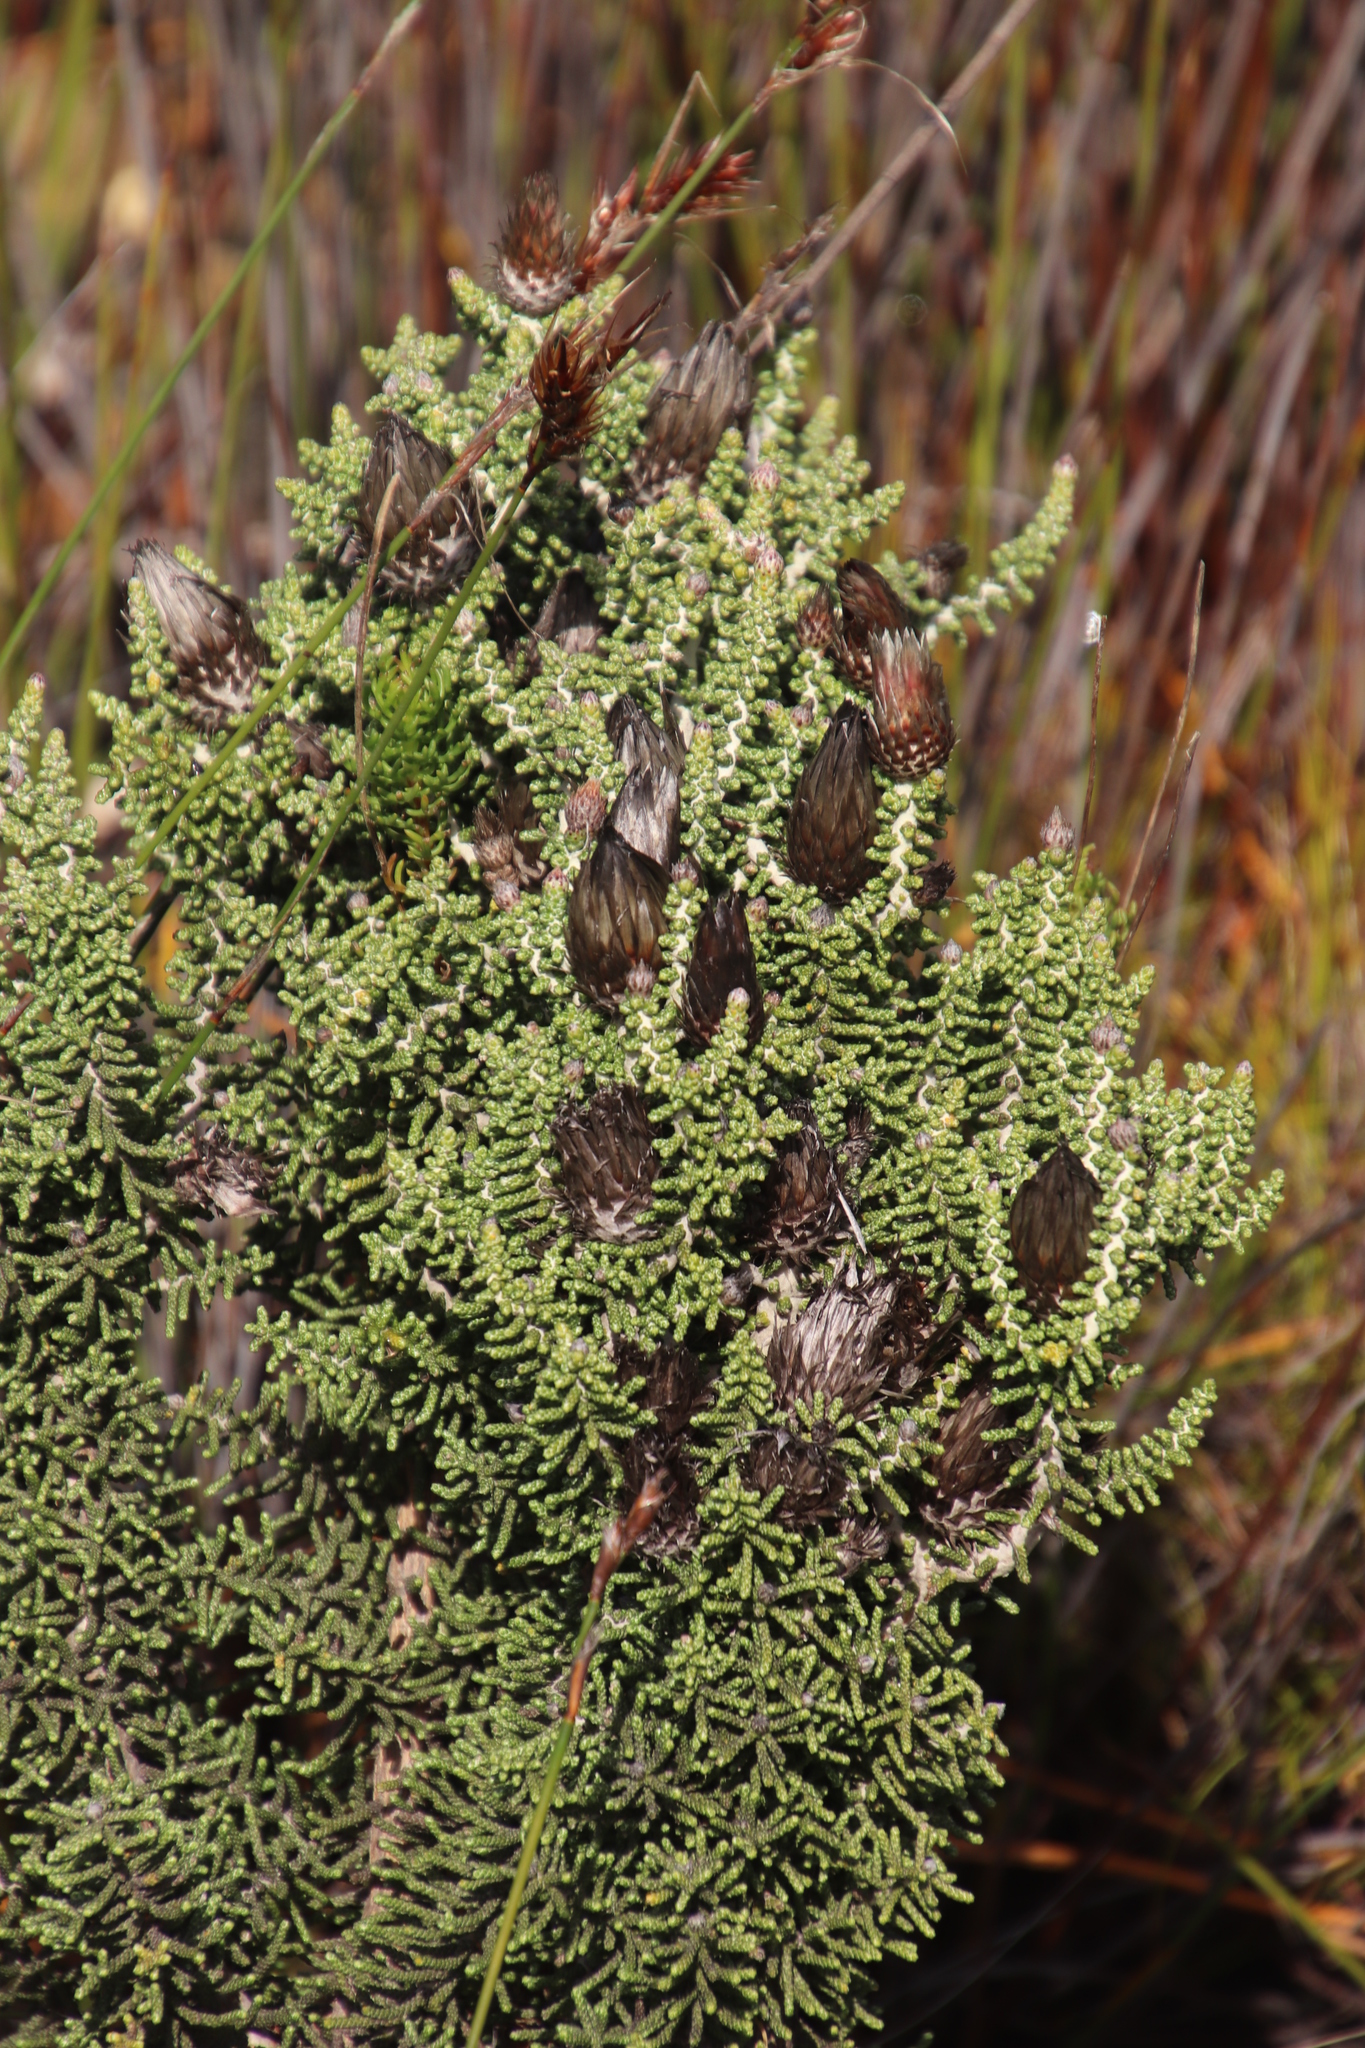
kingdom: Plantae
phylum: Tracheophyta
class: Magnoliopsida
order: Asterales
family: Asteraceae
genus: Phaenocoma
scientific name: Phaenocoma prolifera
